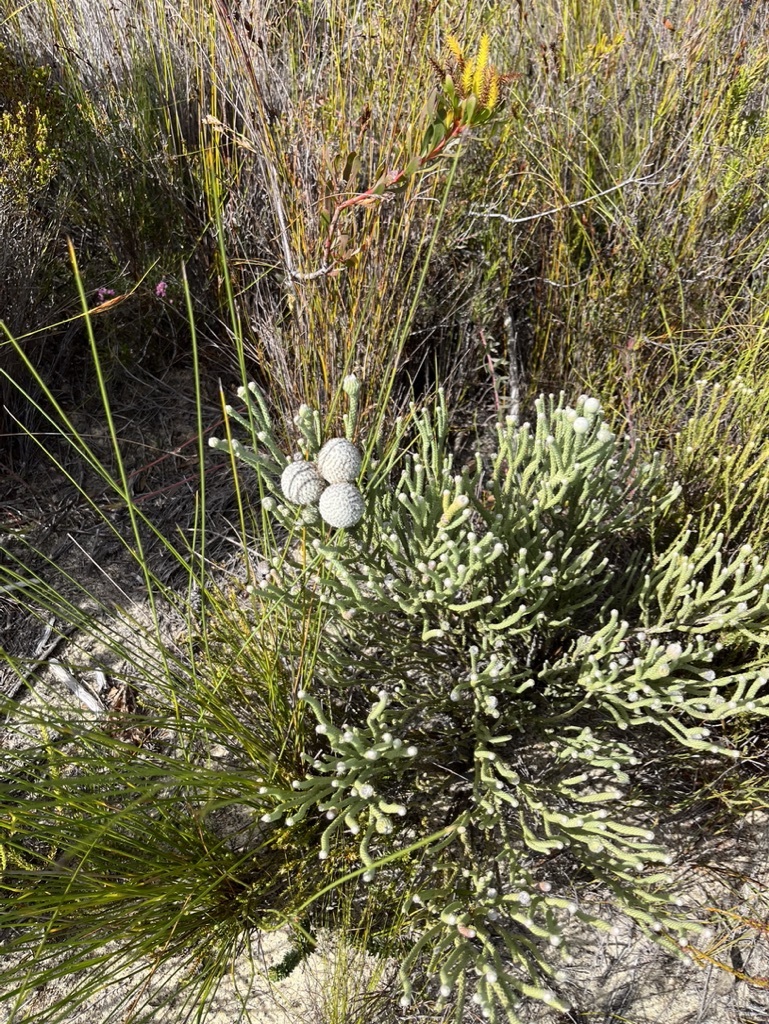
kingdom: Plantae
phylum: Tracheophyta
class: Magnoliopsida
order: Bruniales
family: Bruniaceae
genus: Brunia
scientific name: Brunia laevis
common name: Silver brunia
